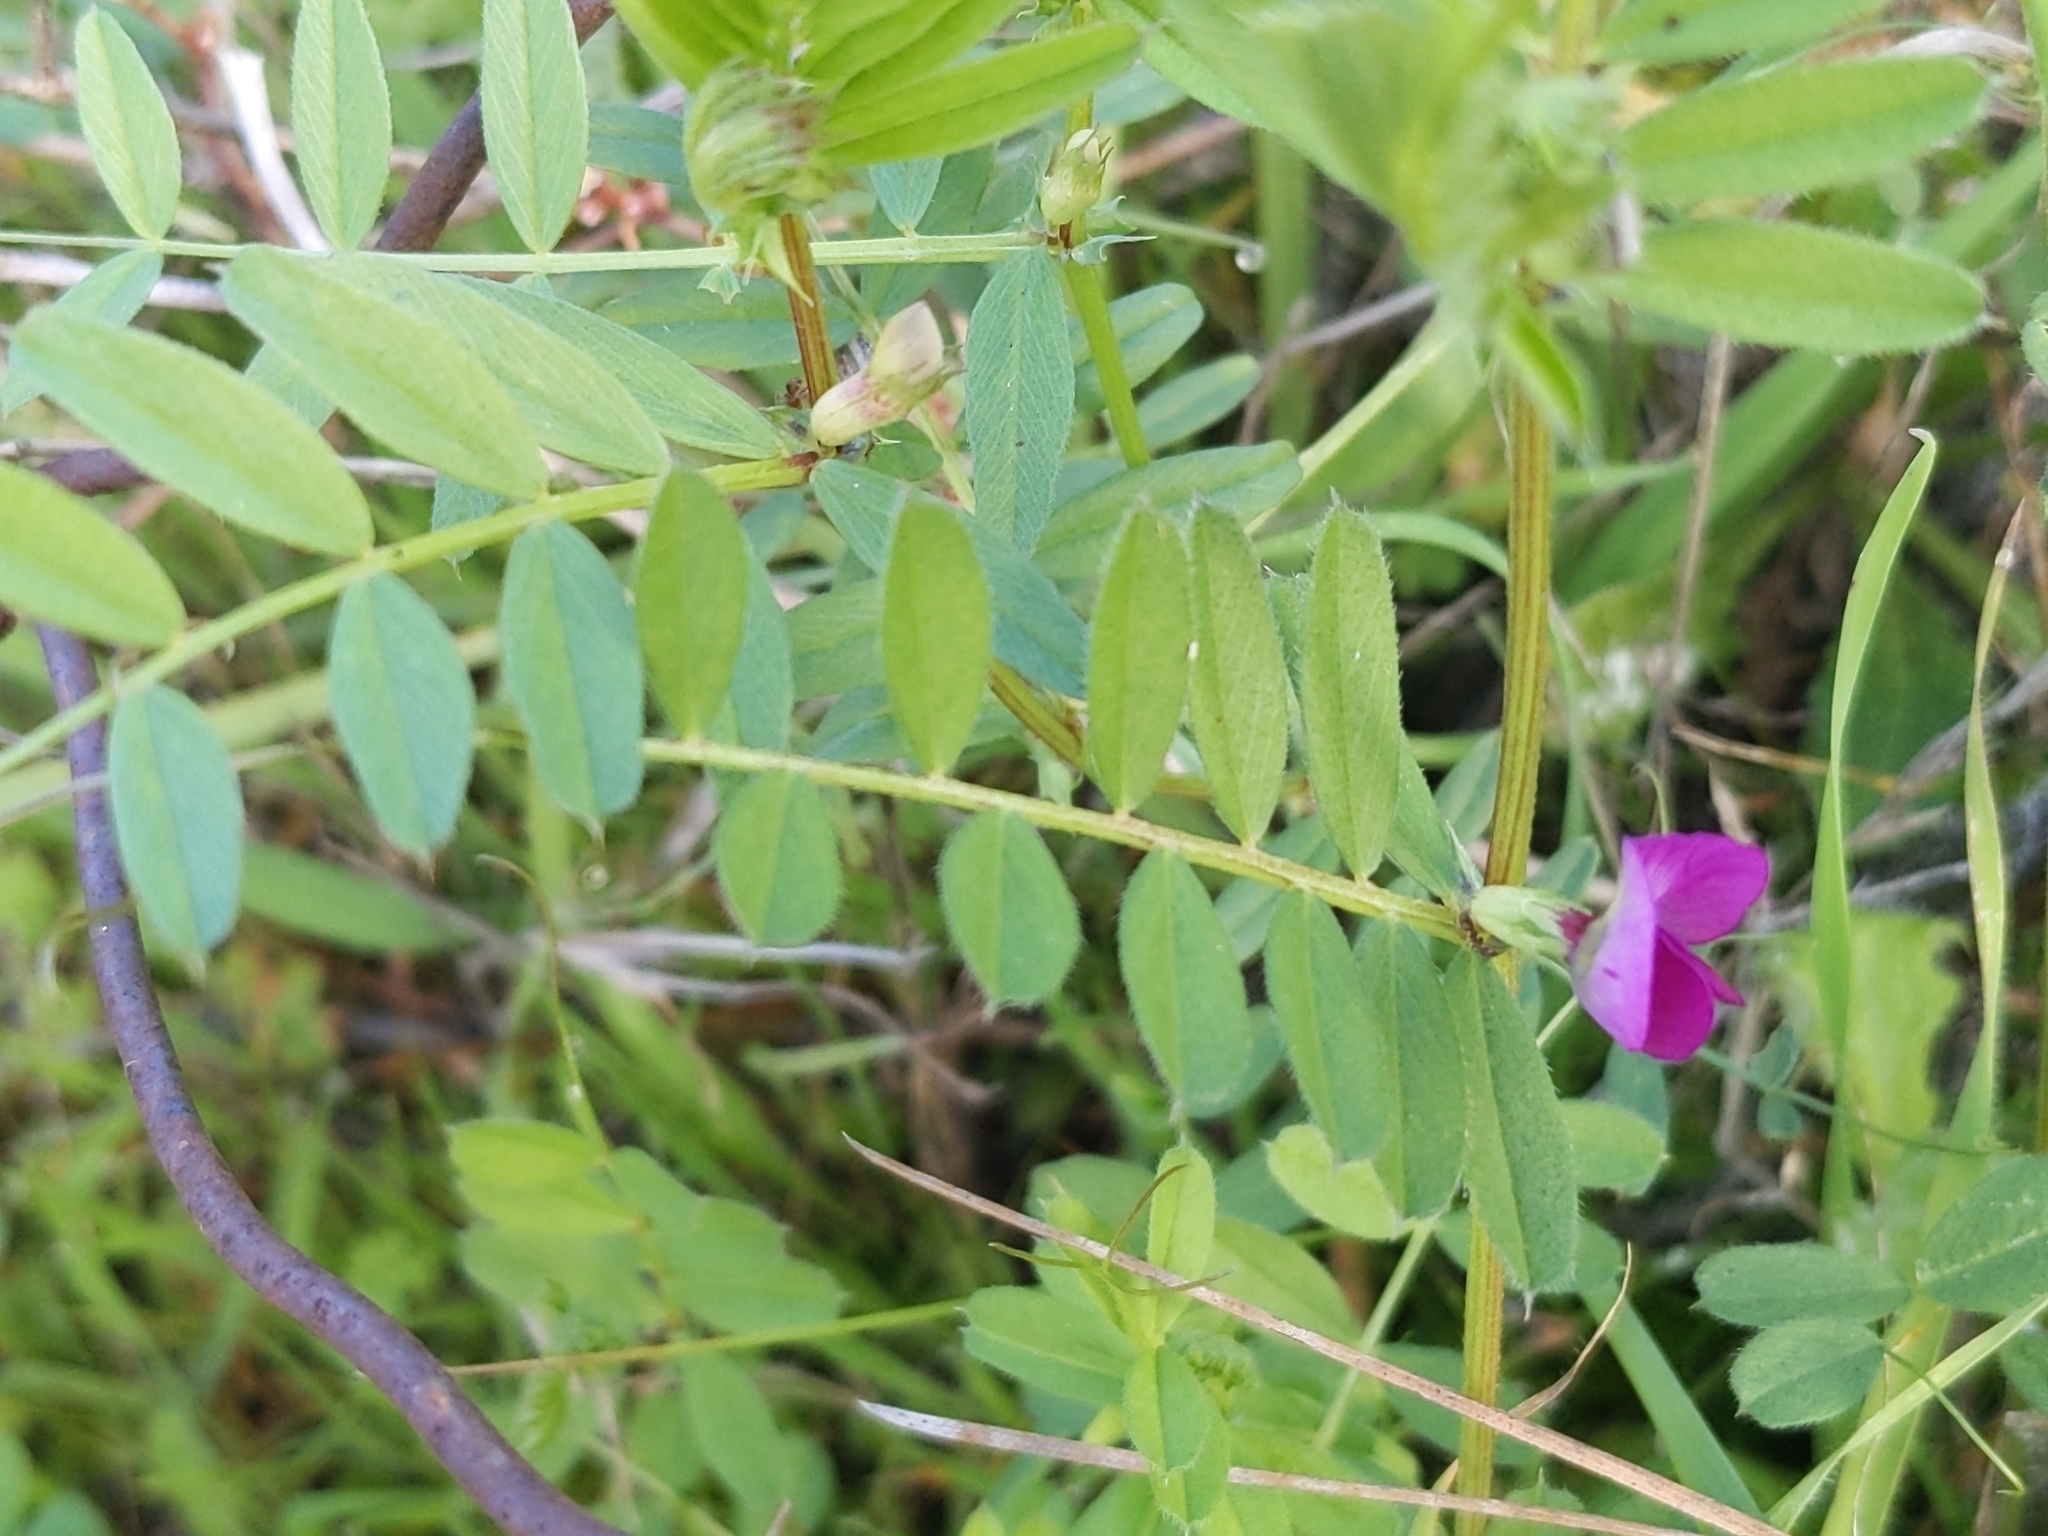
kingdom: Plantae
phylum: Tracheophyta
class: Magnoliopsida
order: Fabales
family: Fabaceae
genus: Vicia
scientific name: Vicia sativa
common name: Garden vetch
